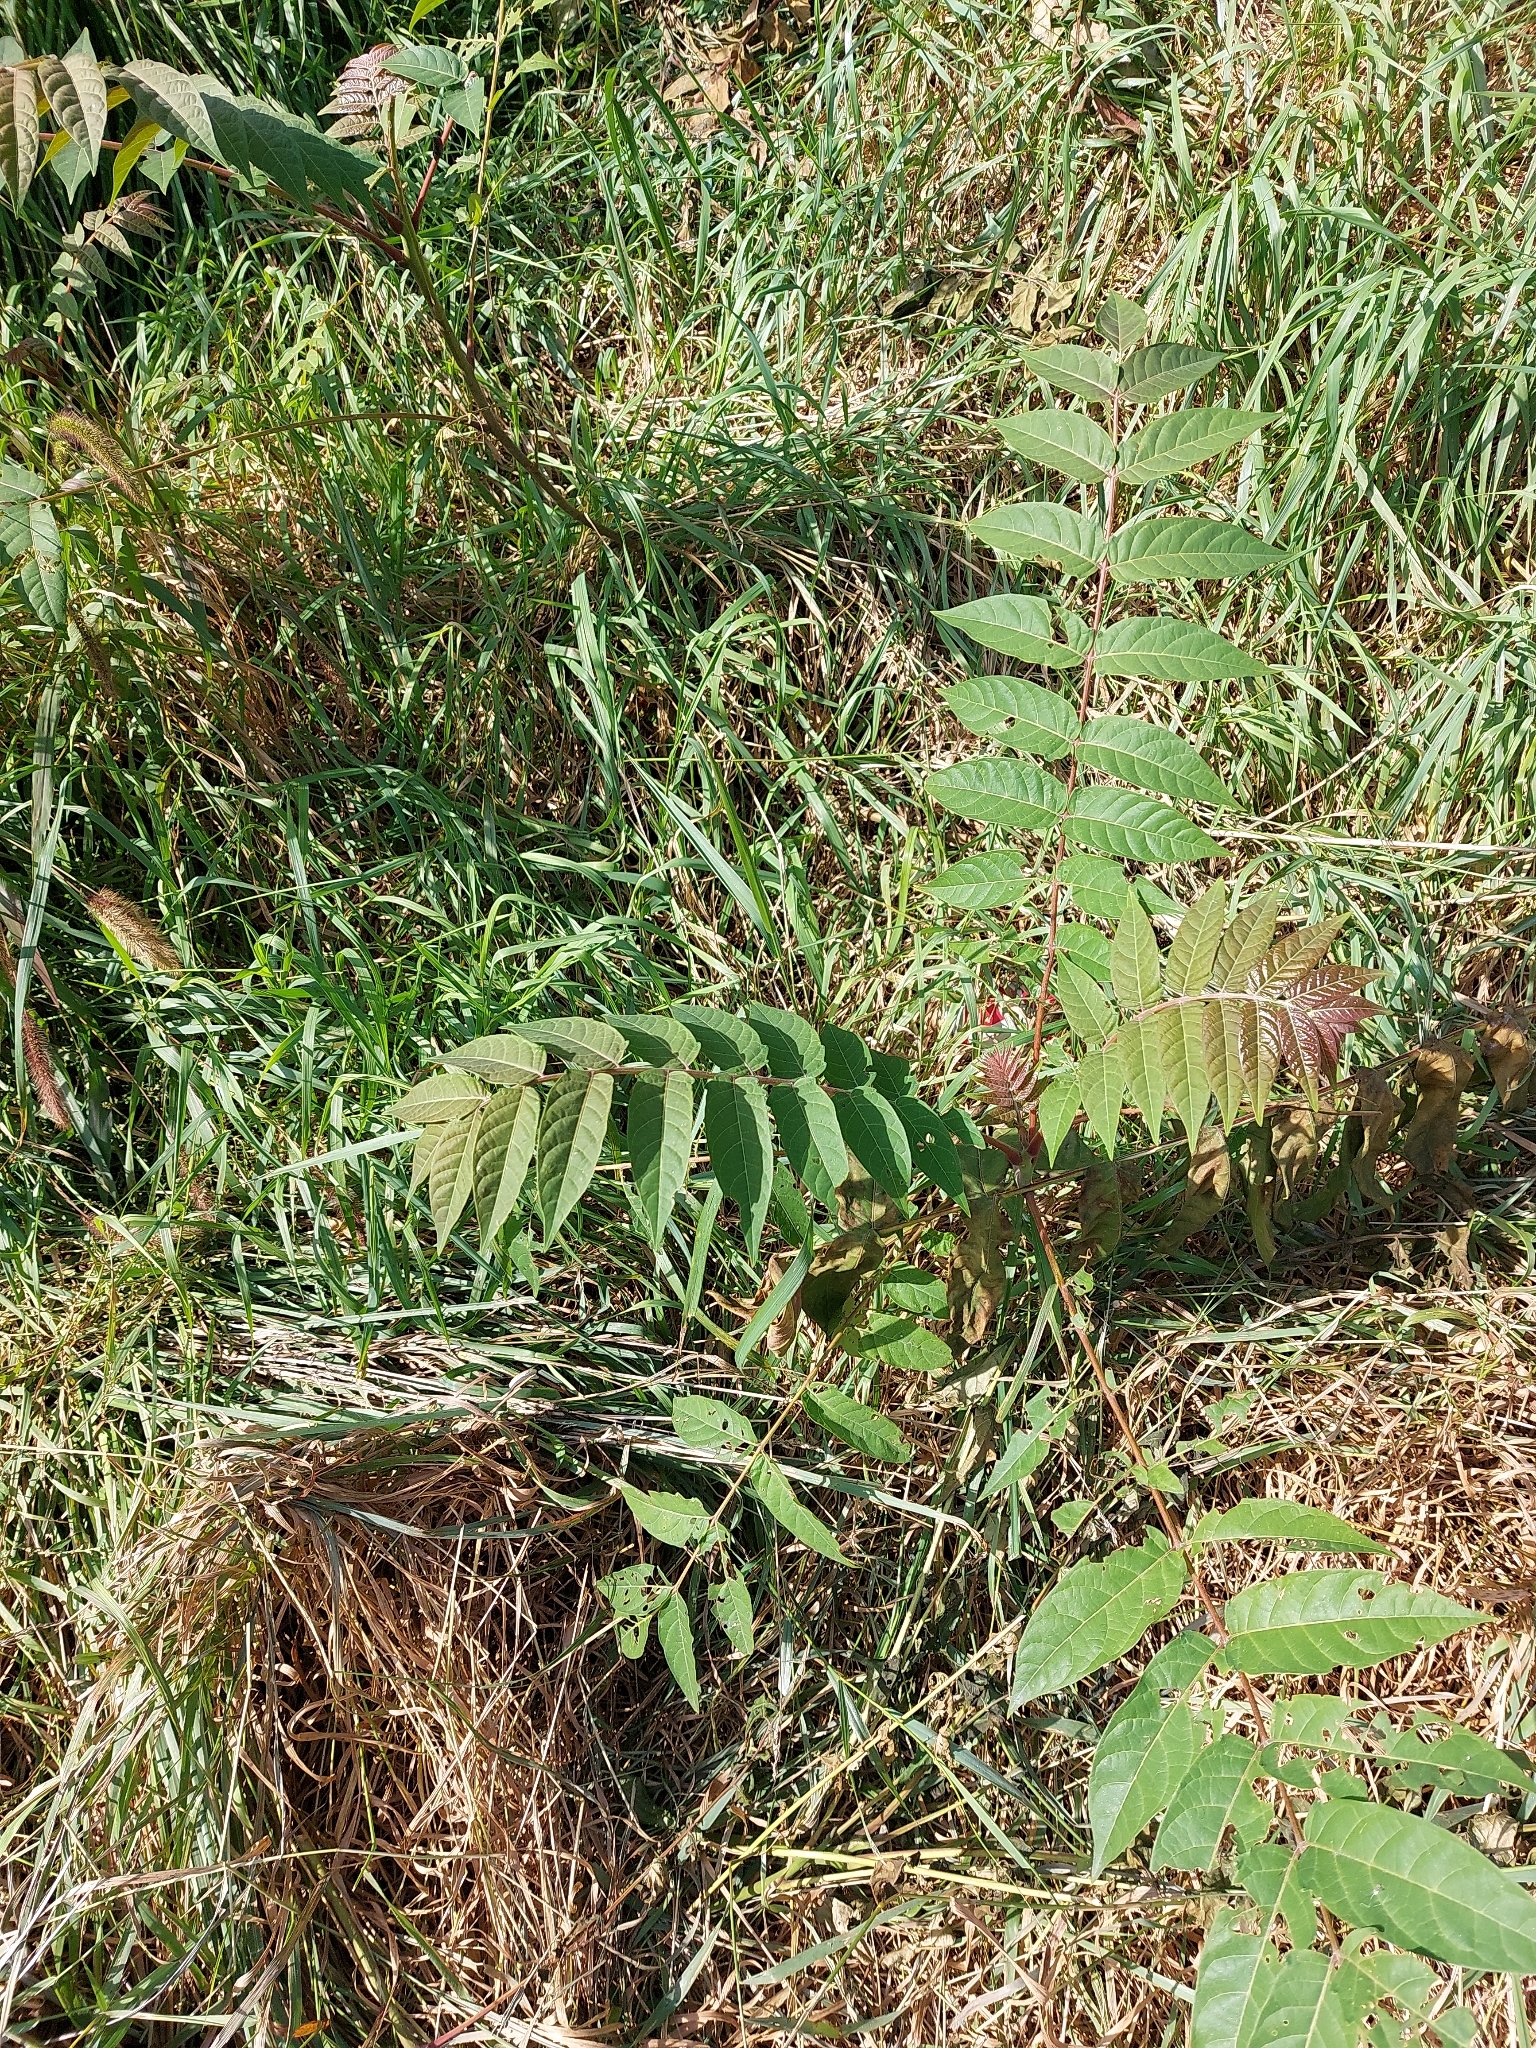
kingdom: Plantae
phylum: Tracheophyta
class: Magnoliopsida
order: Sapindales
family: Simaroubaceae
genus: Ailanthus
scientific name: Ailanthus altissima
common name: Tree-of-heaven
